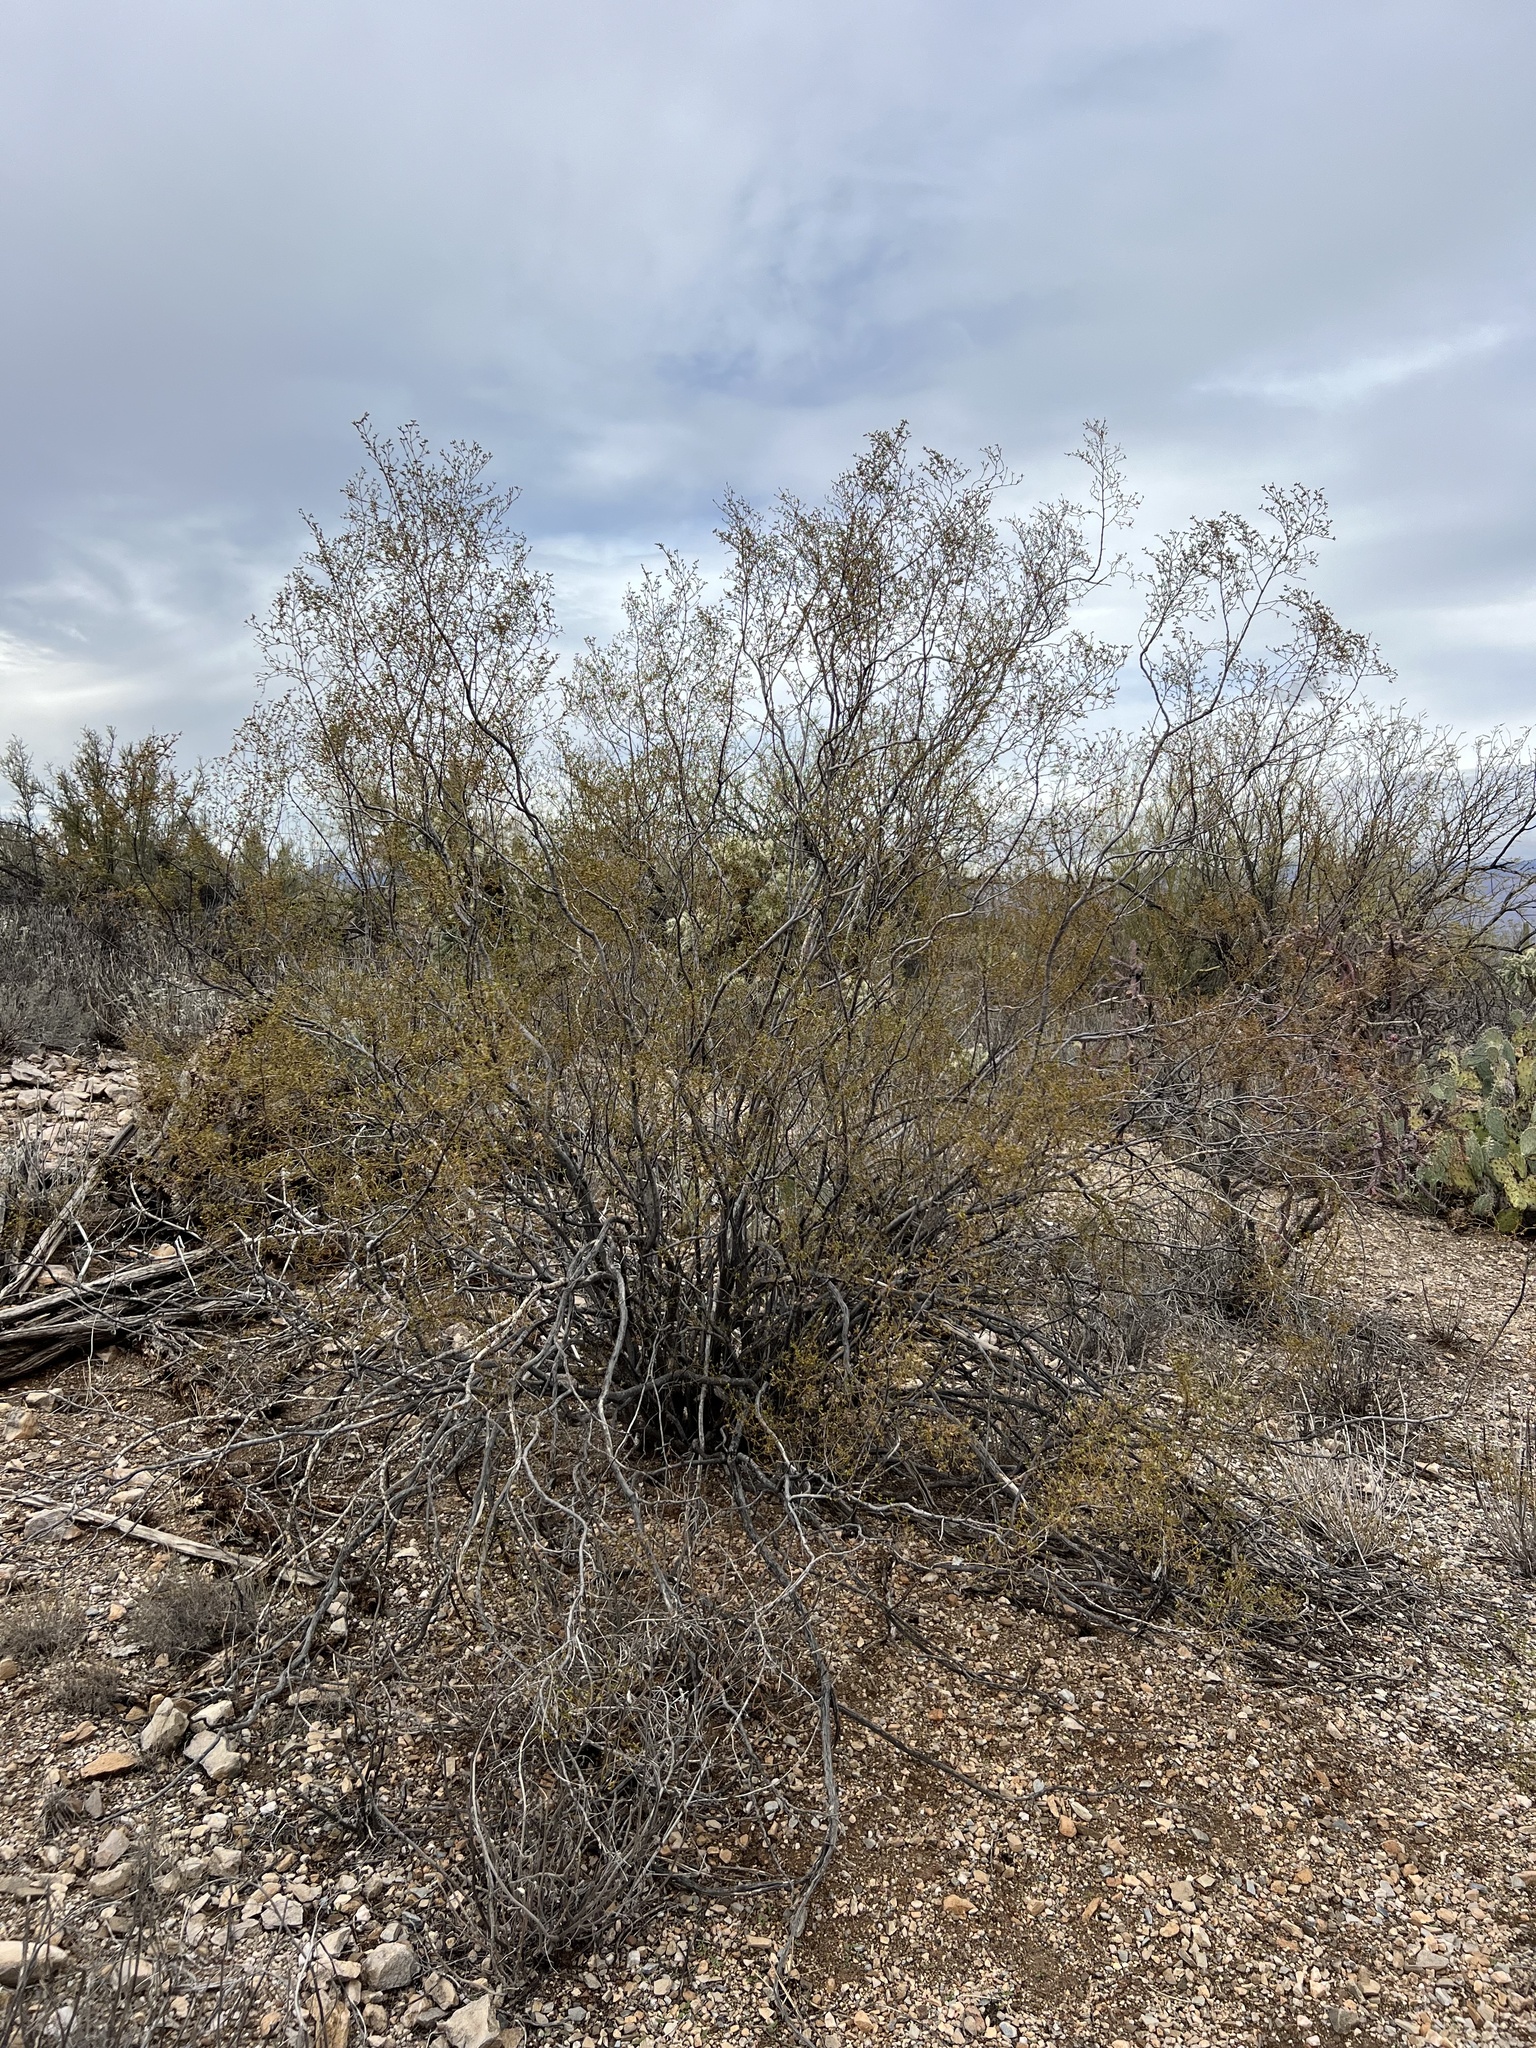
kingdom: Plantae
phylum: Tracheophyta
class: Magnoliopsida
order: Zygophyllales
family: Zygophyllaceae
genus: Larrea
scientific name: Larrea tridentata
